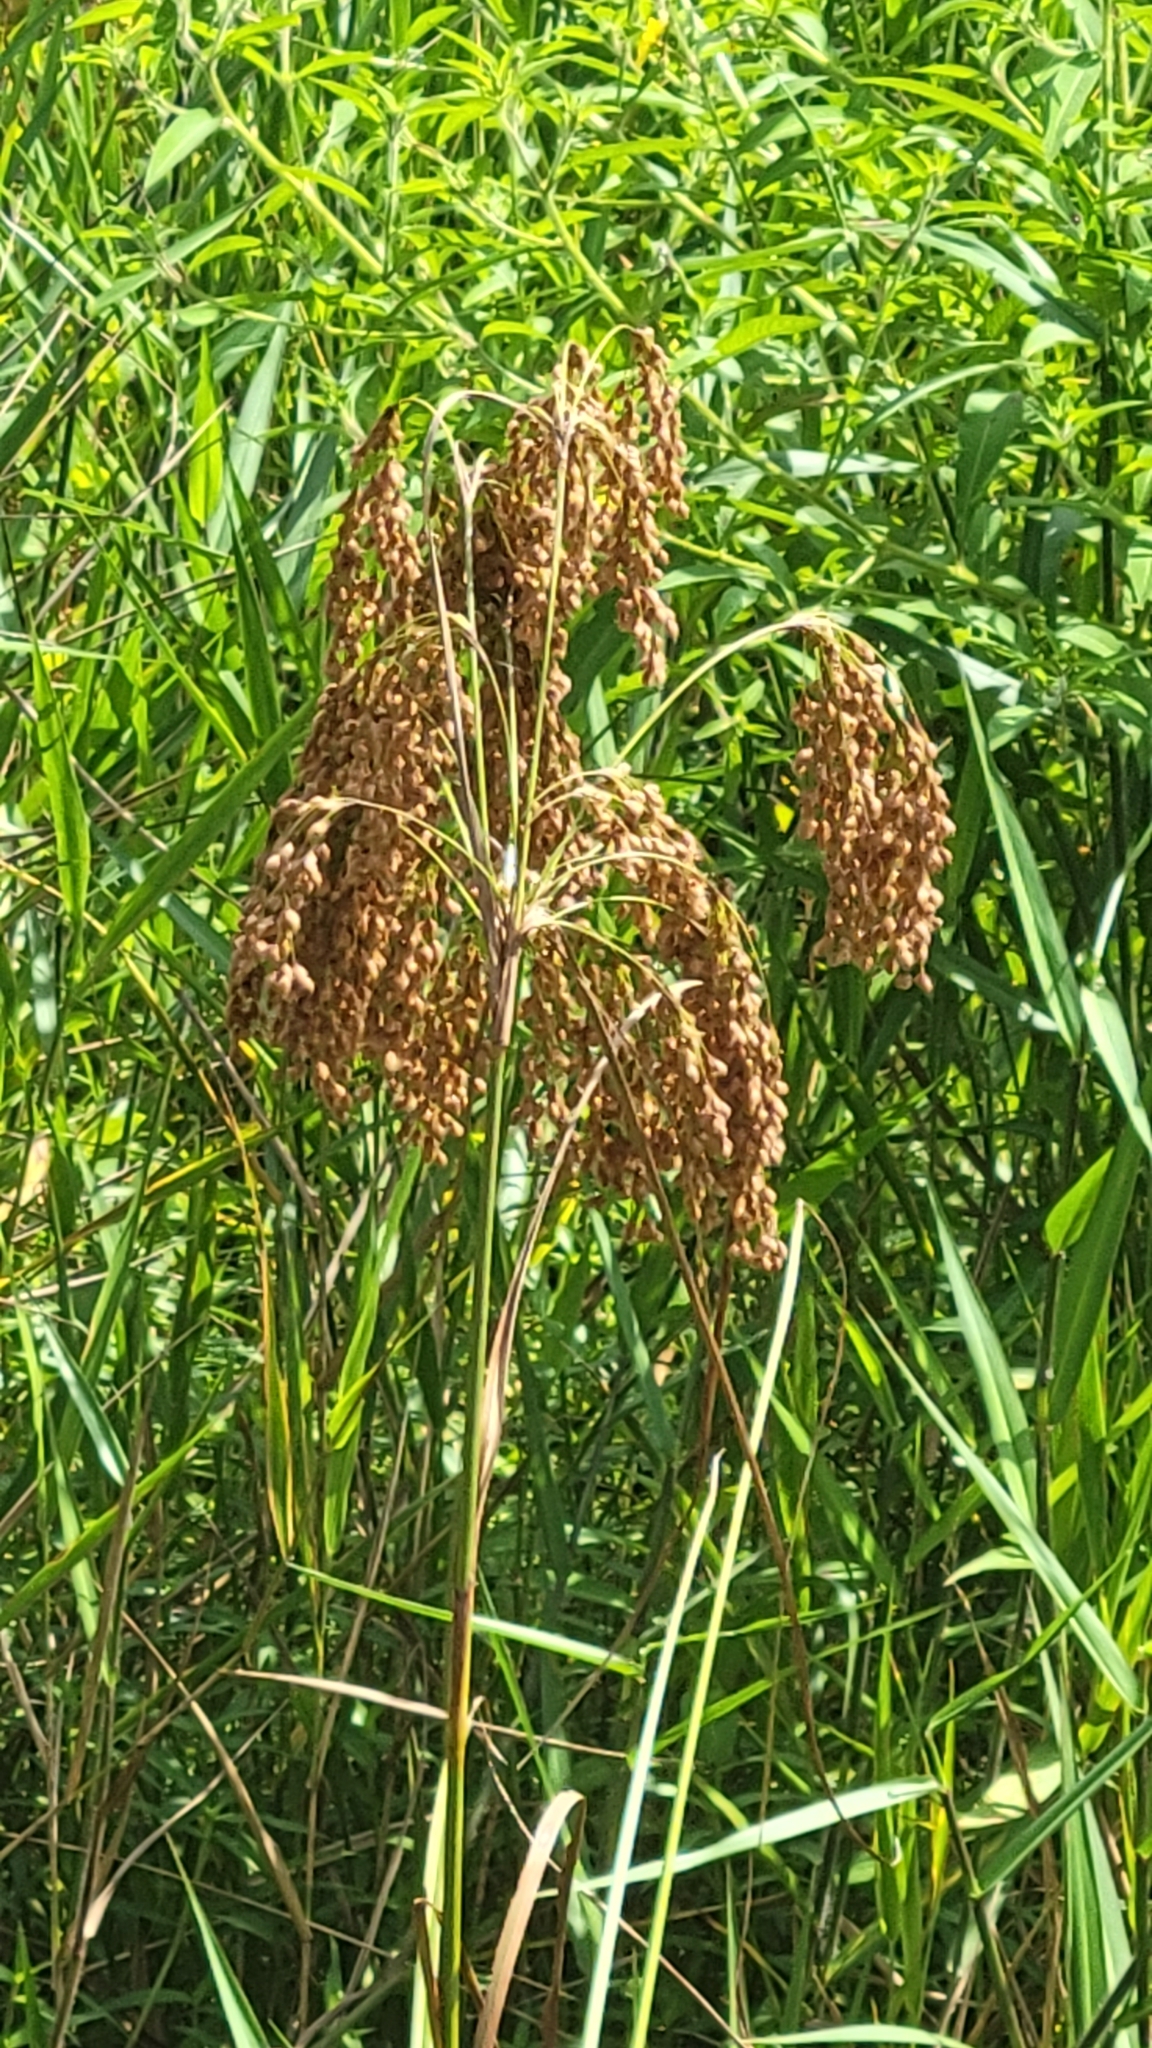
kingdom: Plantae
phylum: Tracheophyta
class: Liliopsida
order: Poales
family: Cyperaceae
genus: Scirpus
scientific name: Scirpus cyperinus
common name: Black-sheathed bulrush
